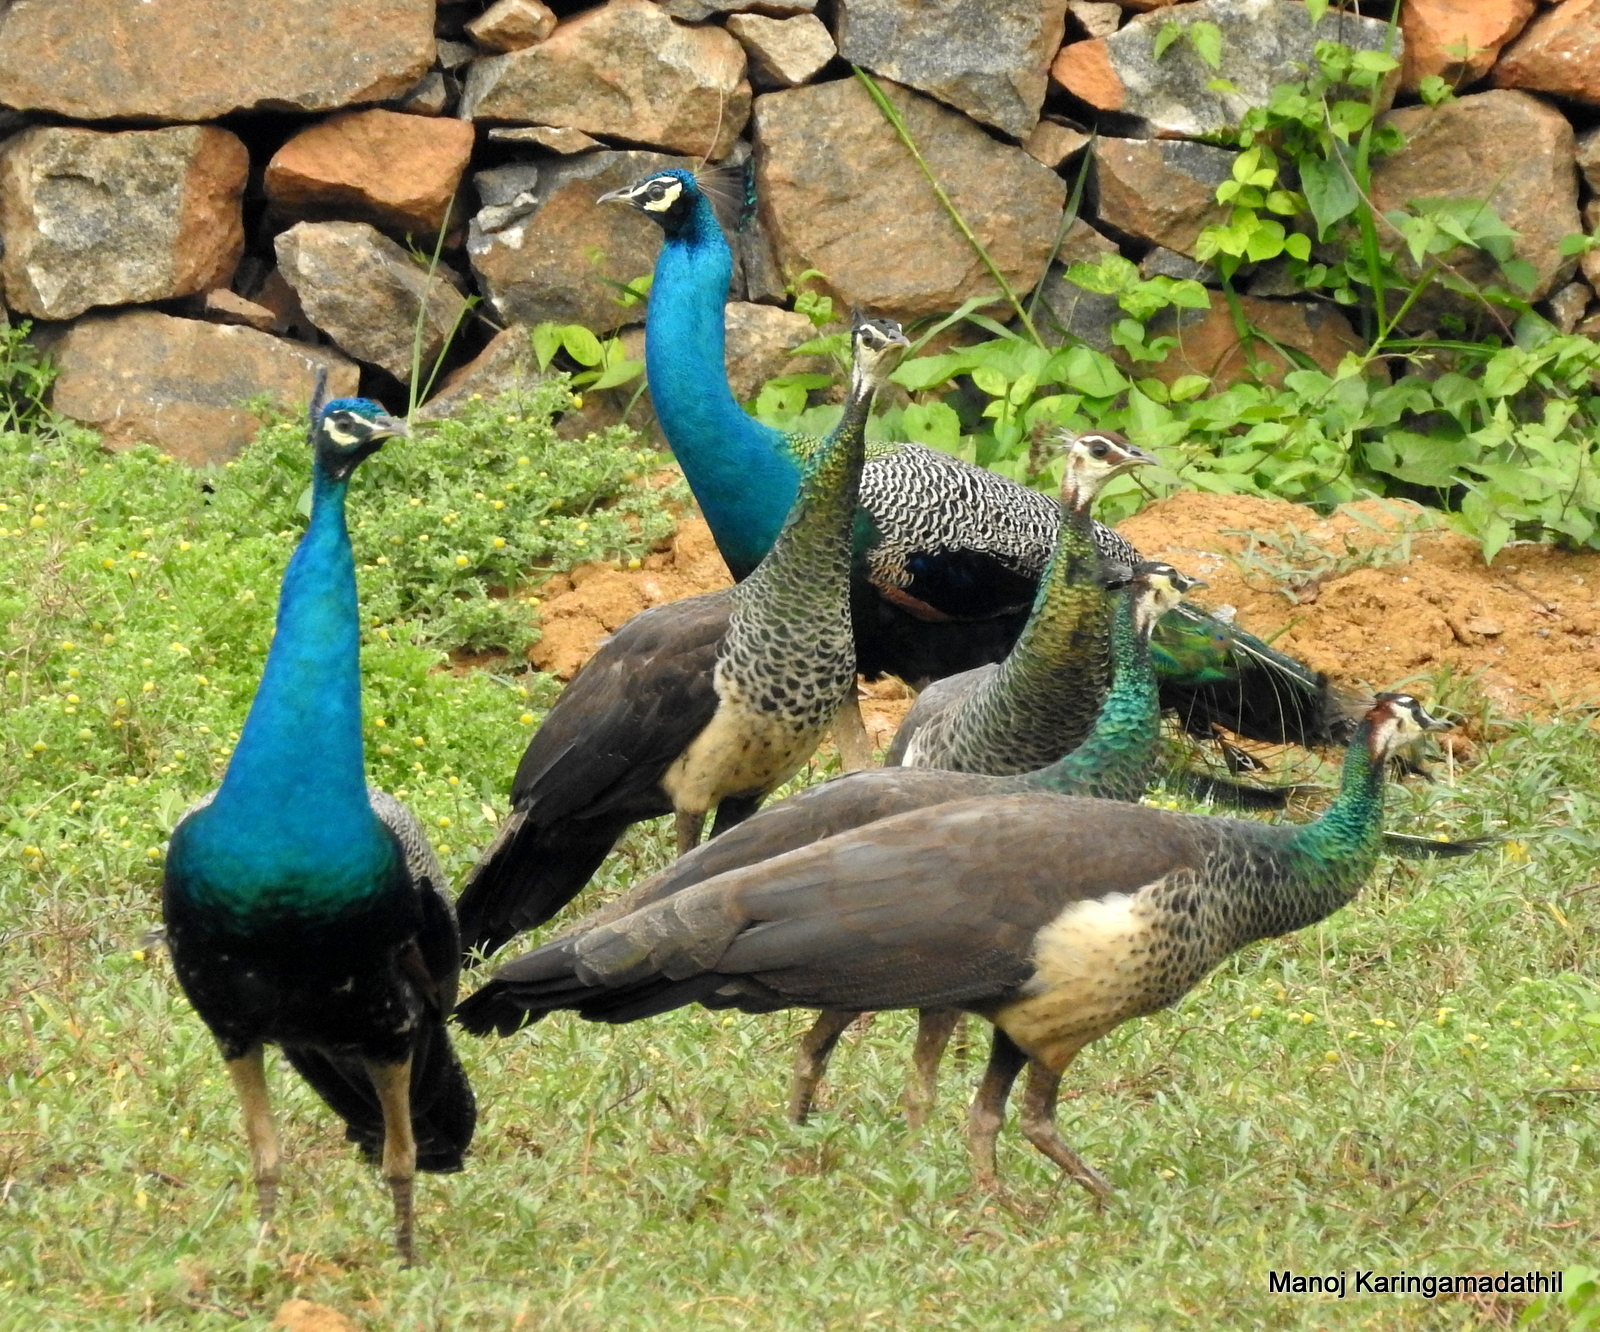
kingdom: Animalia
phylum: Chordata
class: Aves
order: Galliformes
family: Phasianidae
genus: Pavo
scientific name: Pavo cristatus
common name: Indian peafowl
